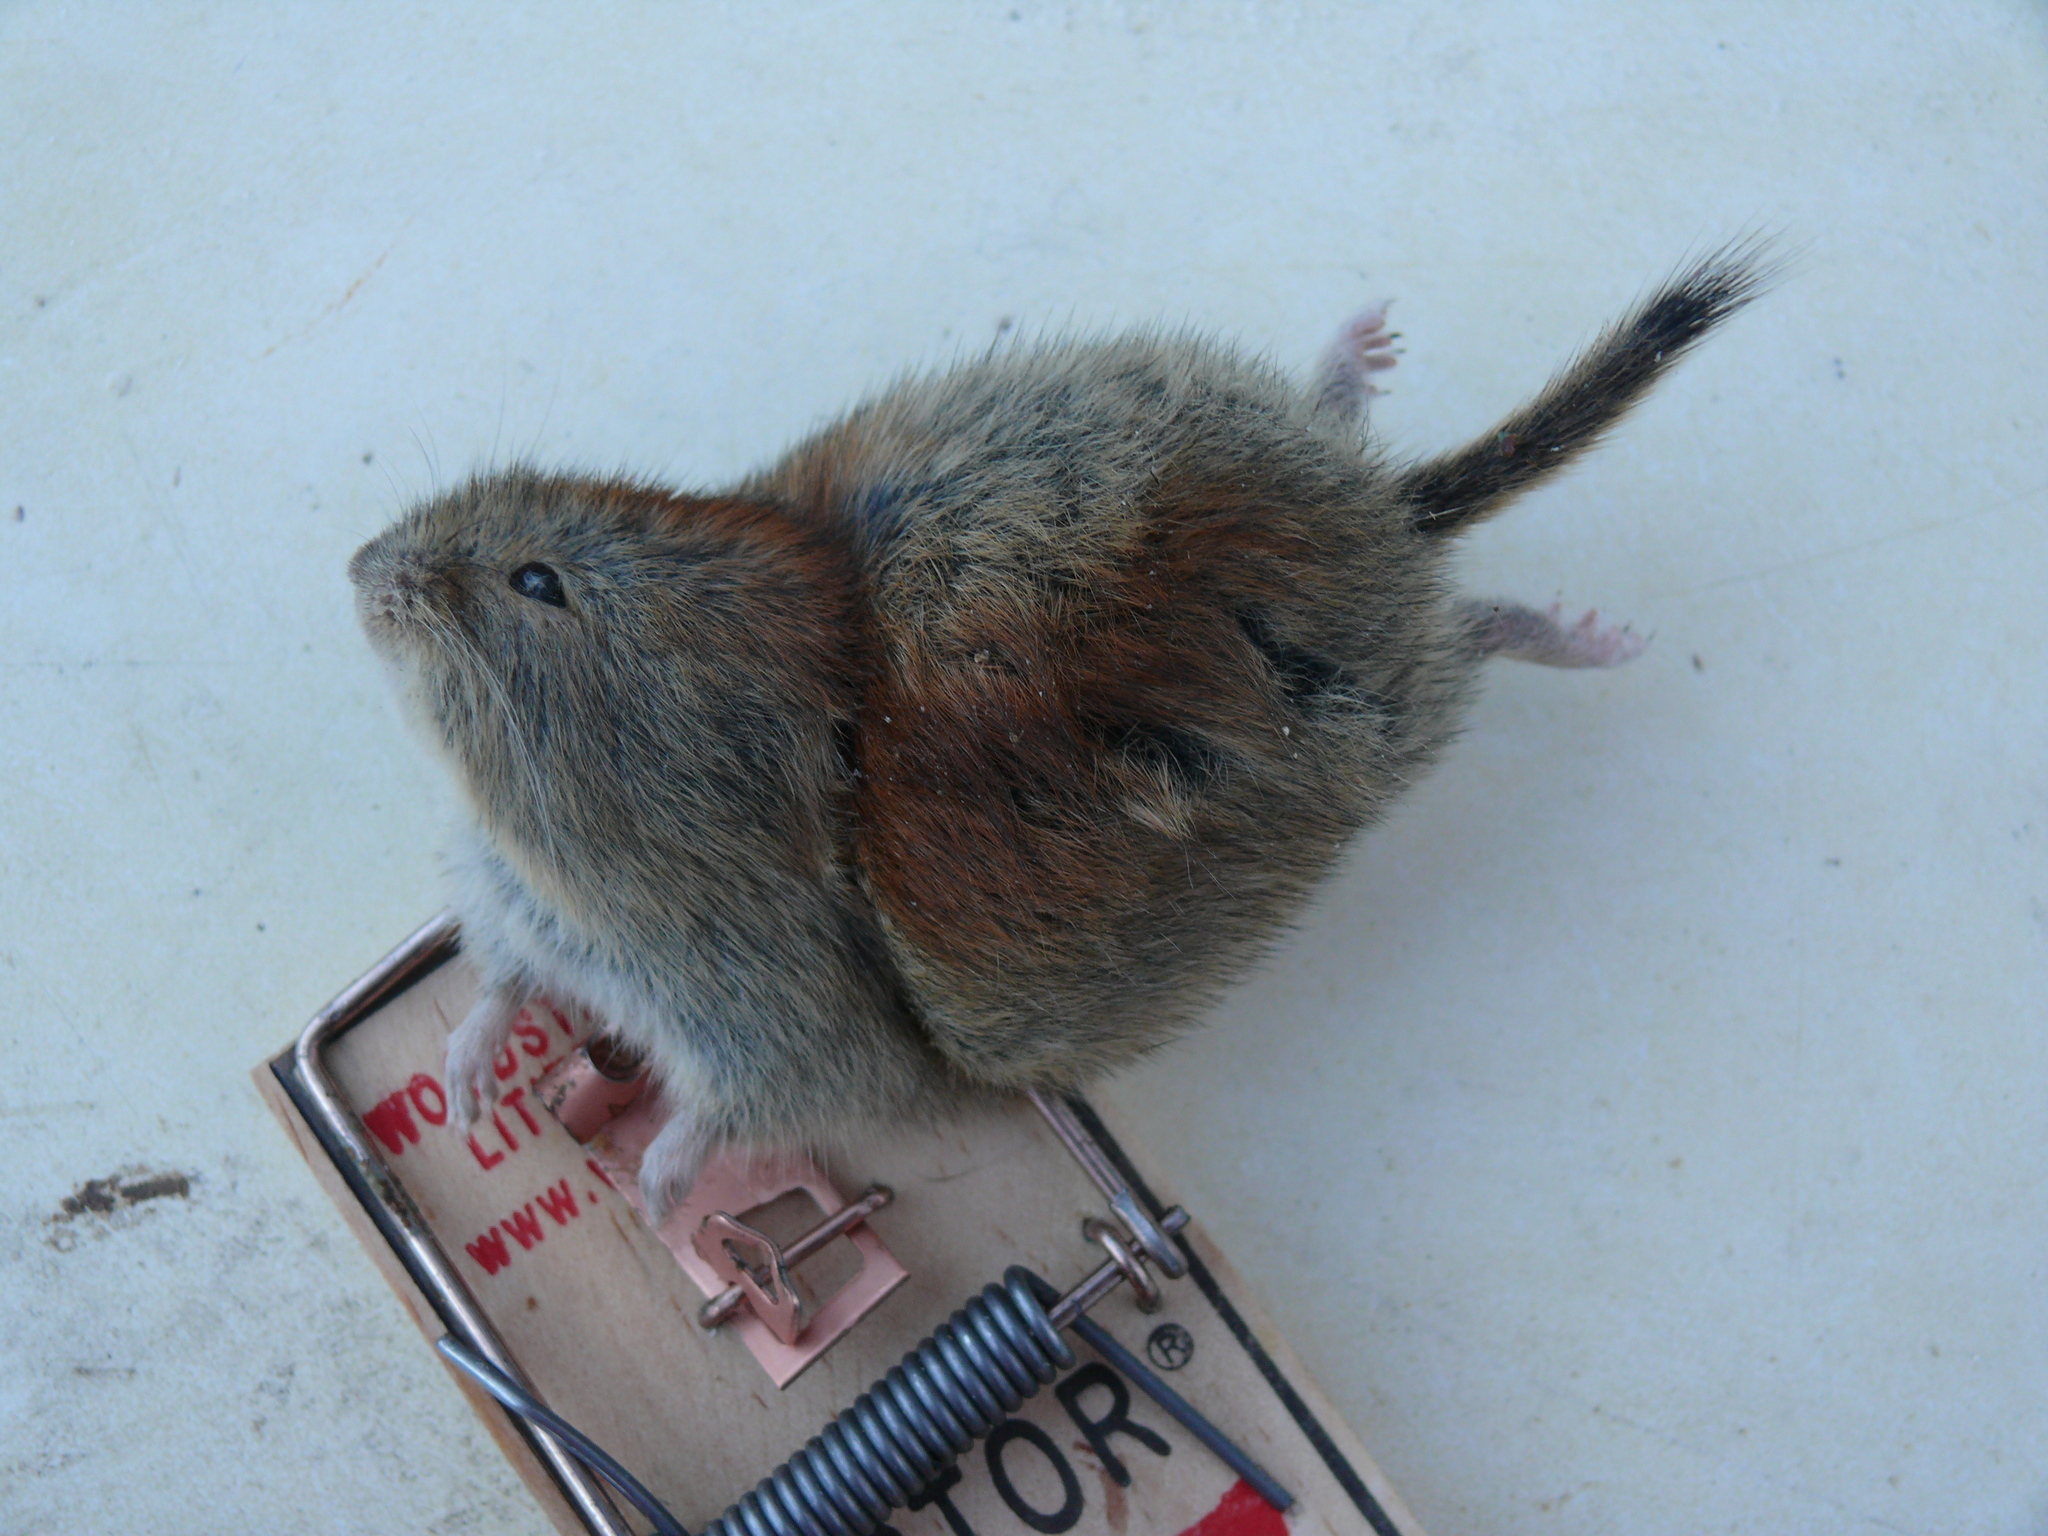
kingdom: Animalia
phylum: Chordata
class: Mammalia
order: Rodentia
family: Cricetidae
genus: Myodes
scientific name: Myodes rutilus
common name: Northern red-backed vole
